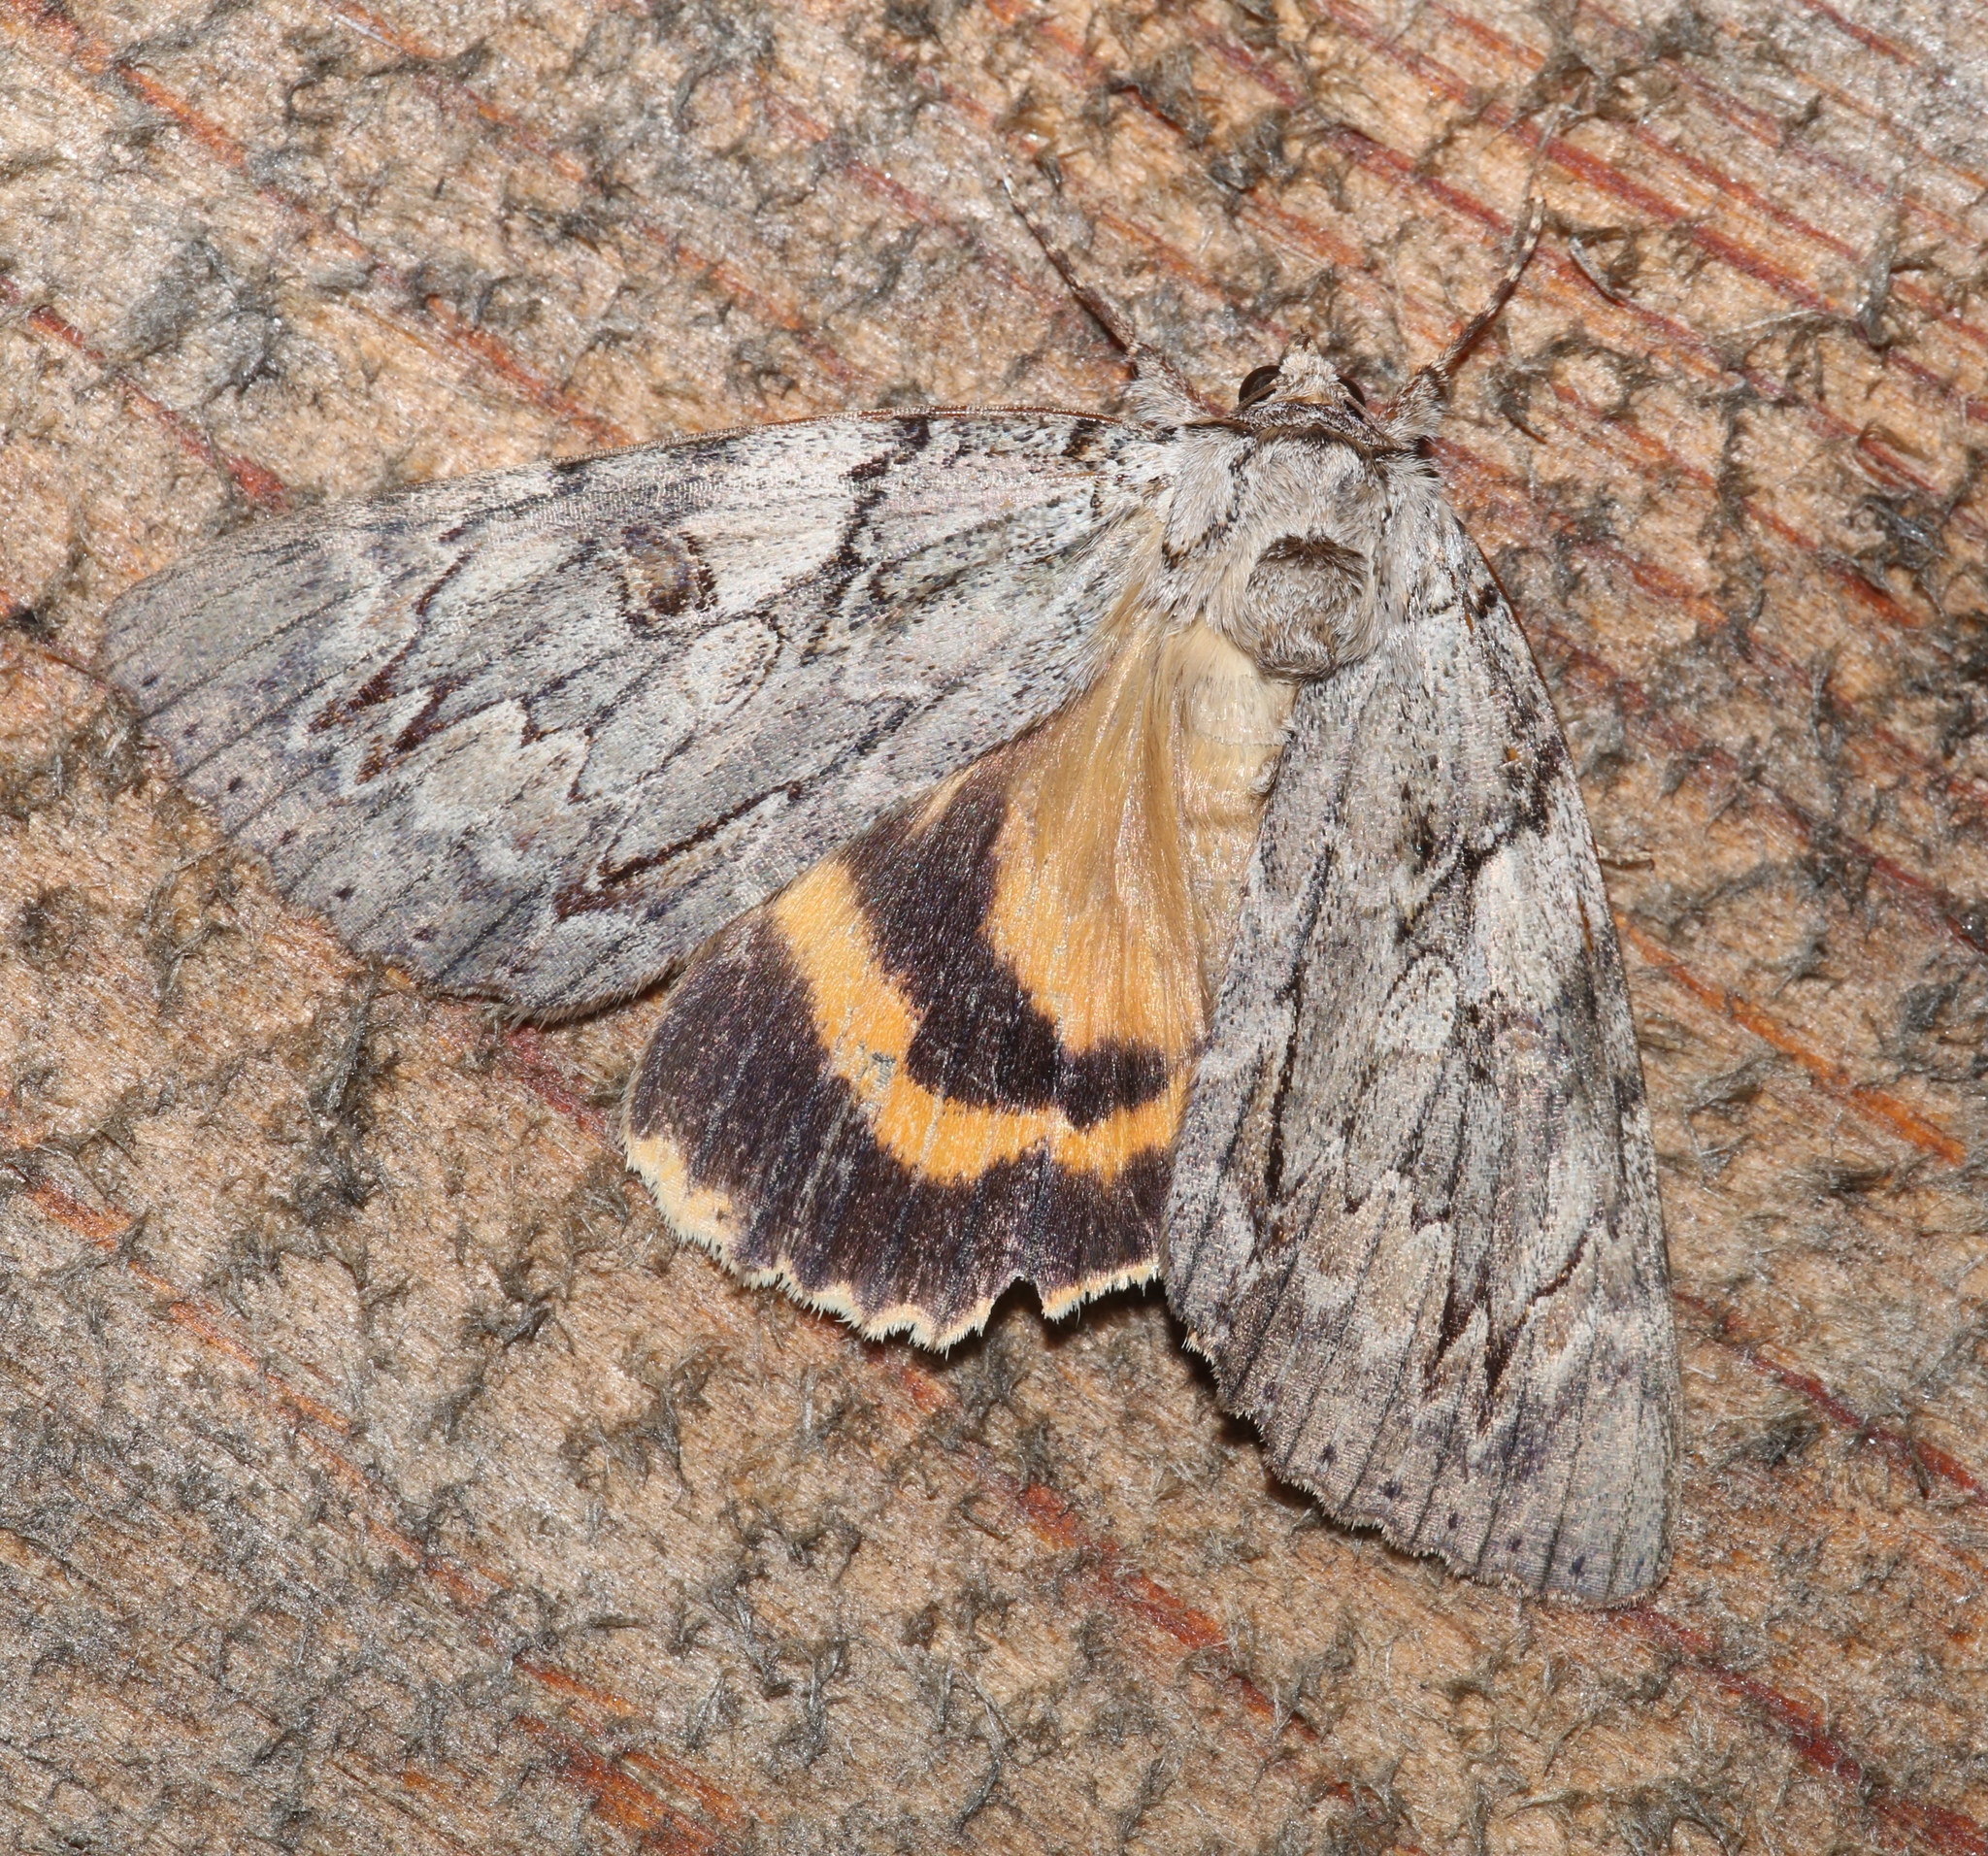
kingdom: Animalia
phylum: Arthropoda
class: Insecta
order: Lepidoptera
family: Erebidae
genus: Catocala
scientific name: Catocala subnata
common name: Youthful underwing
